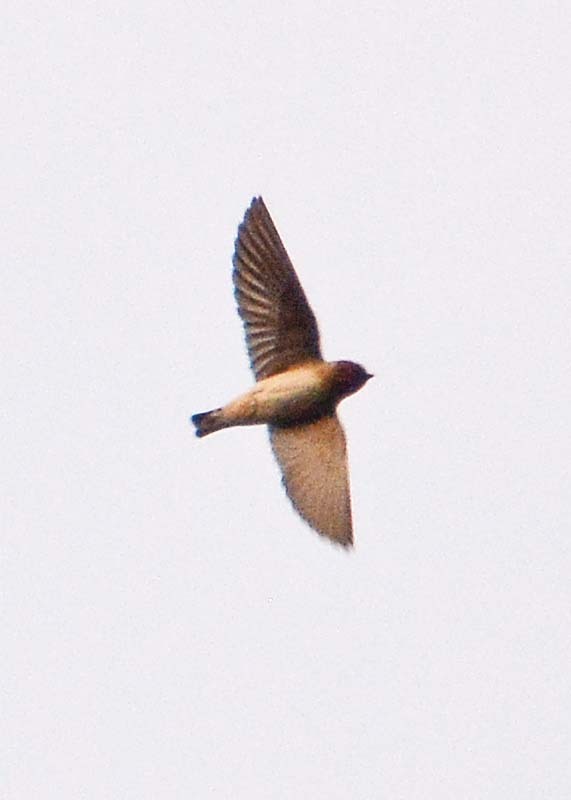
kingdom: Animalia
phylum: Chordata
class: Aves
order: Passeriformes
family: Hirundinidae
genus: Petrochelidon
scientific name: Petrochelidon pyrrhonota
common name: American cliff swallow
